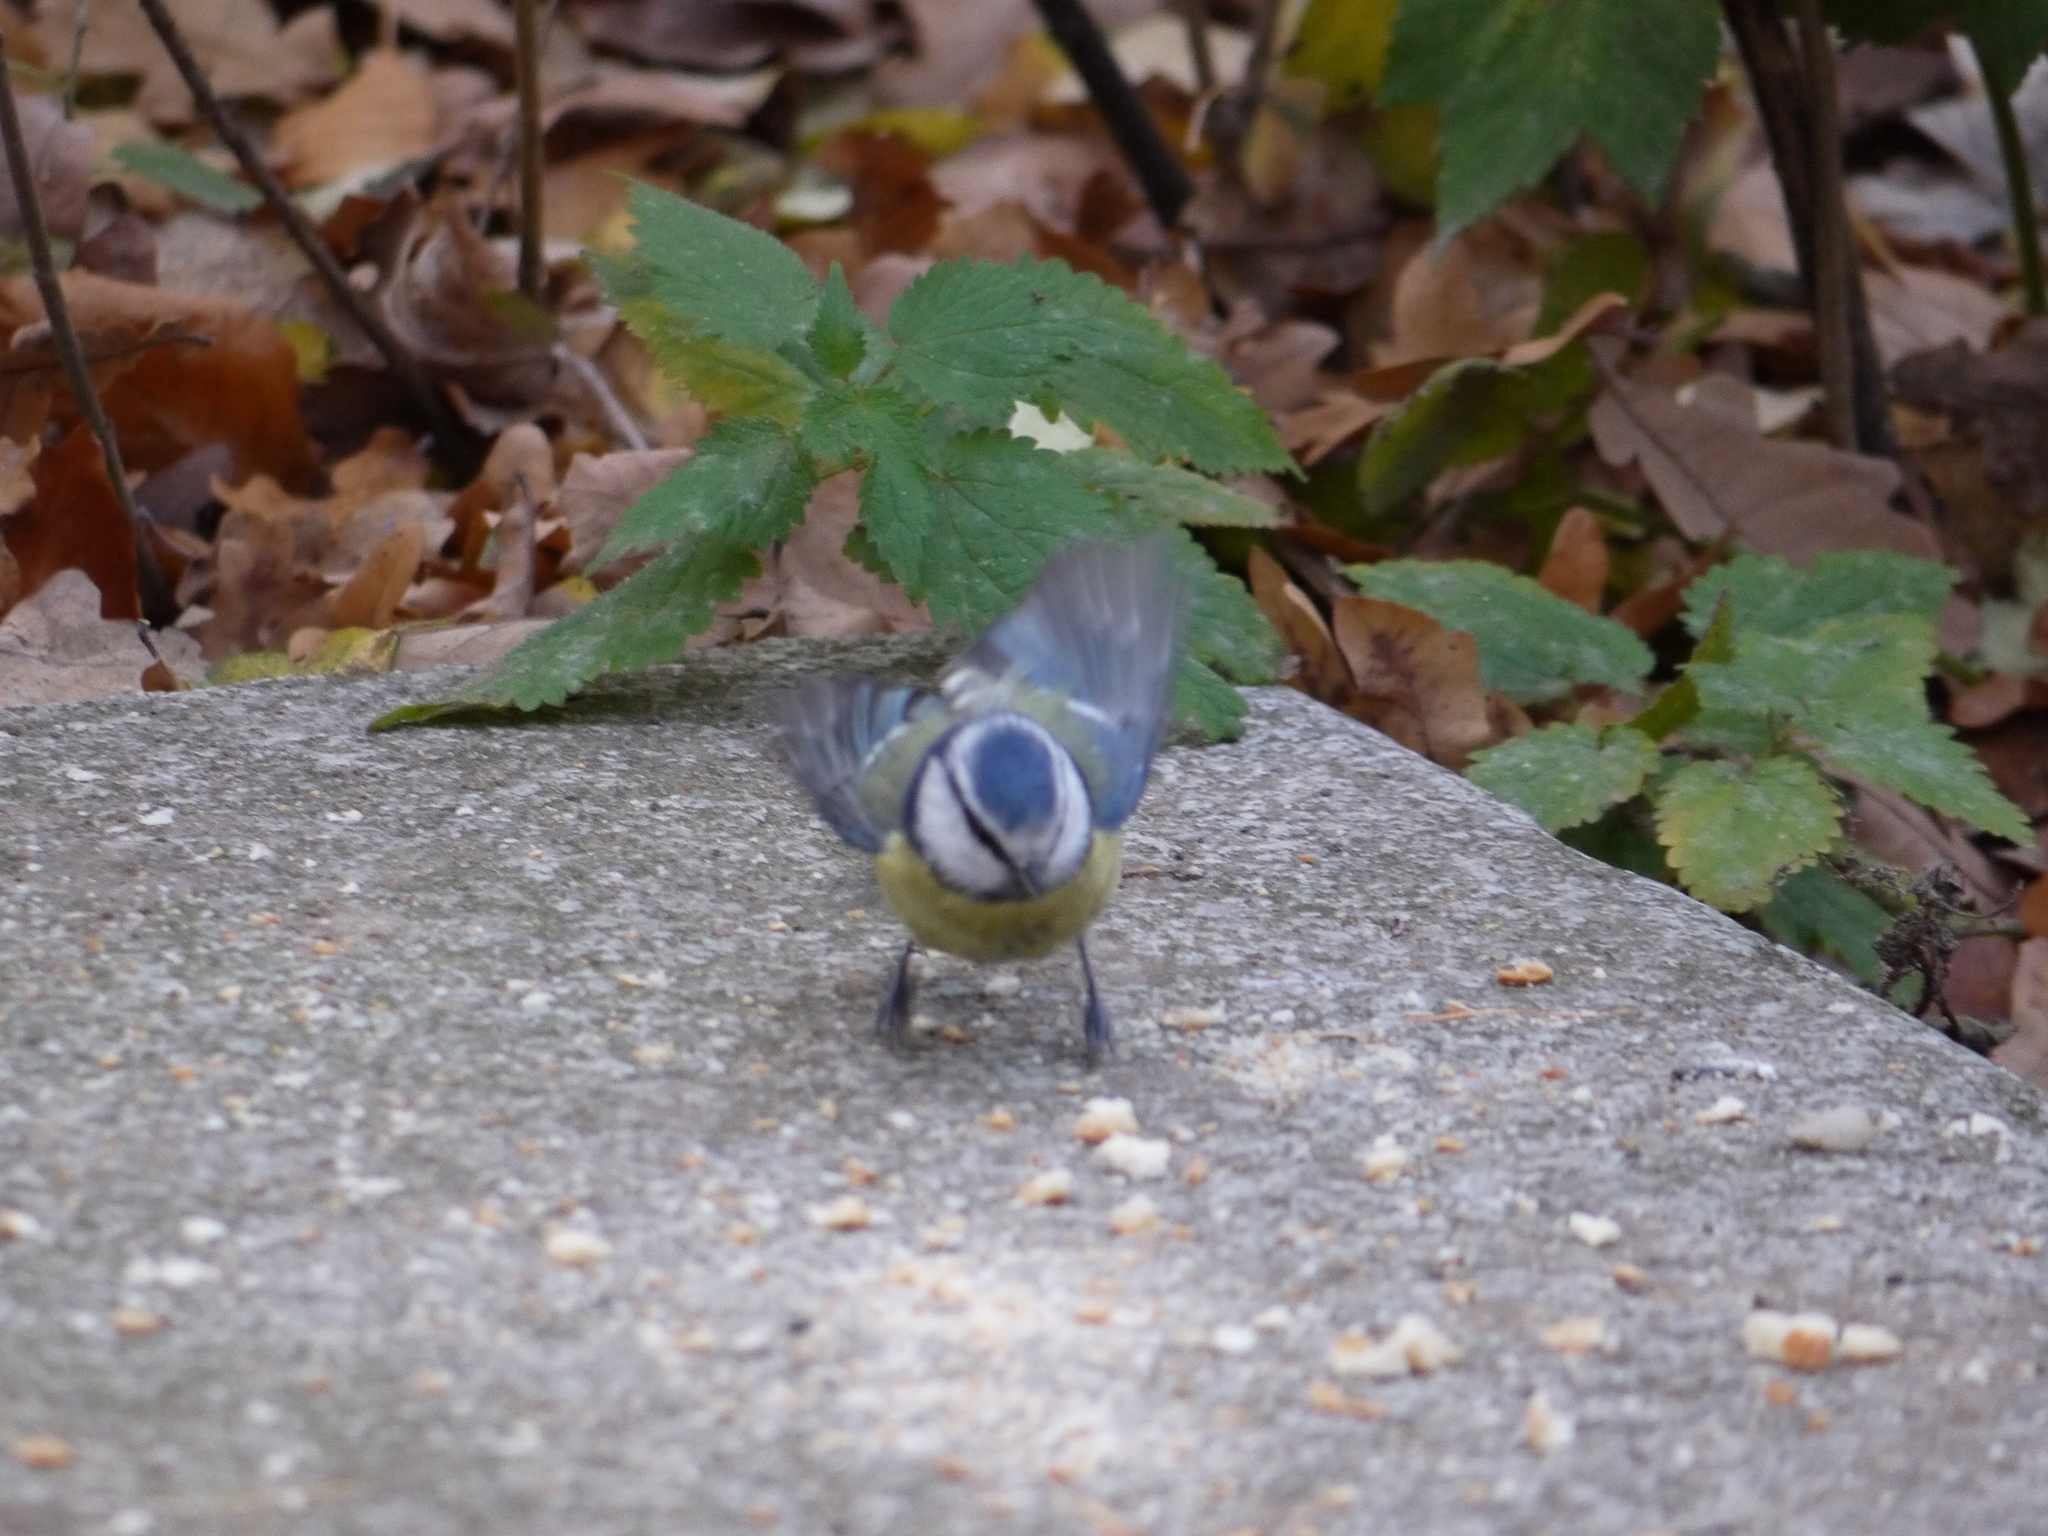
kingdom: Animalia
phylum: Chordata
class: Aves
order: Passeriformes
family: Paridae
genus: Cyanistes
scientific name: Cyanistes caeruleus
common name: Eurasian blue tit
